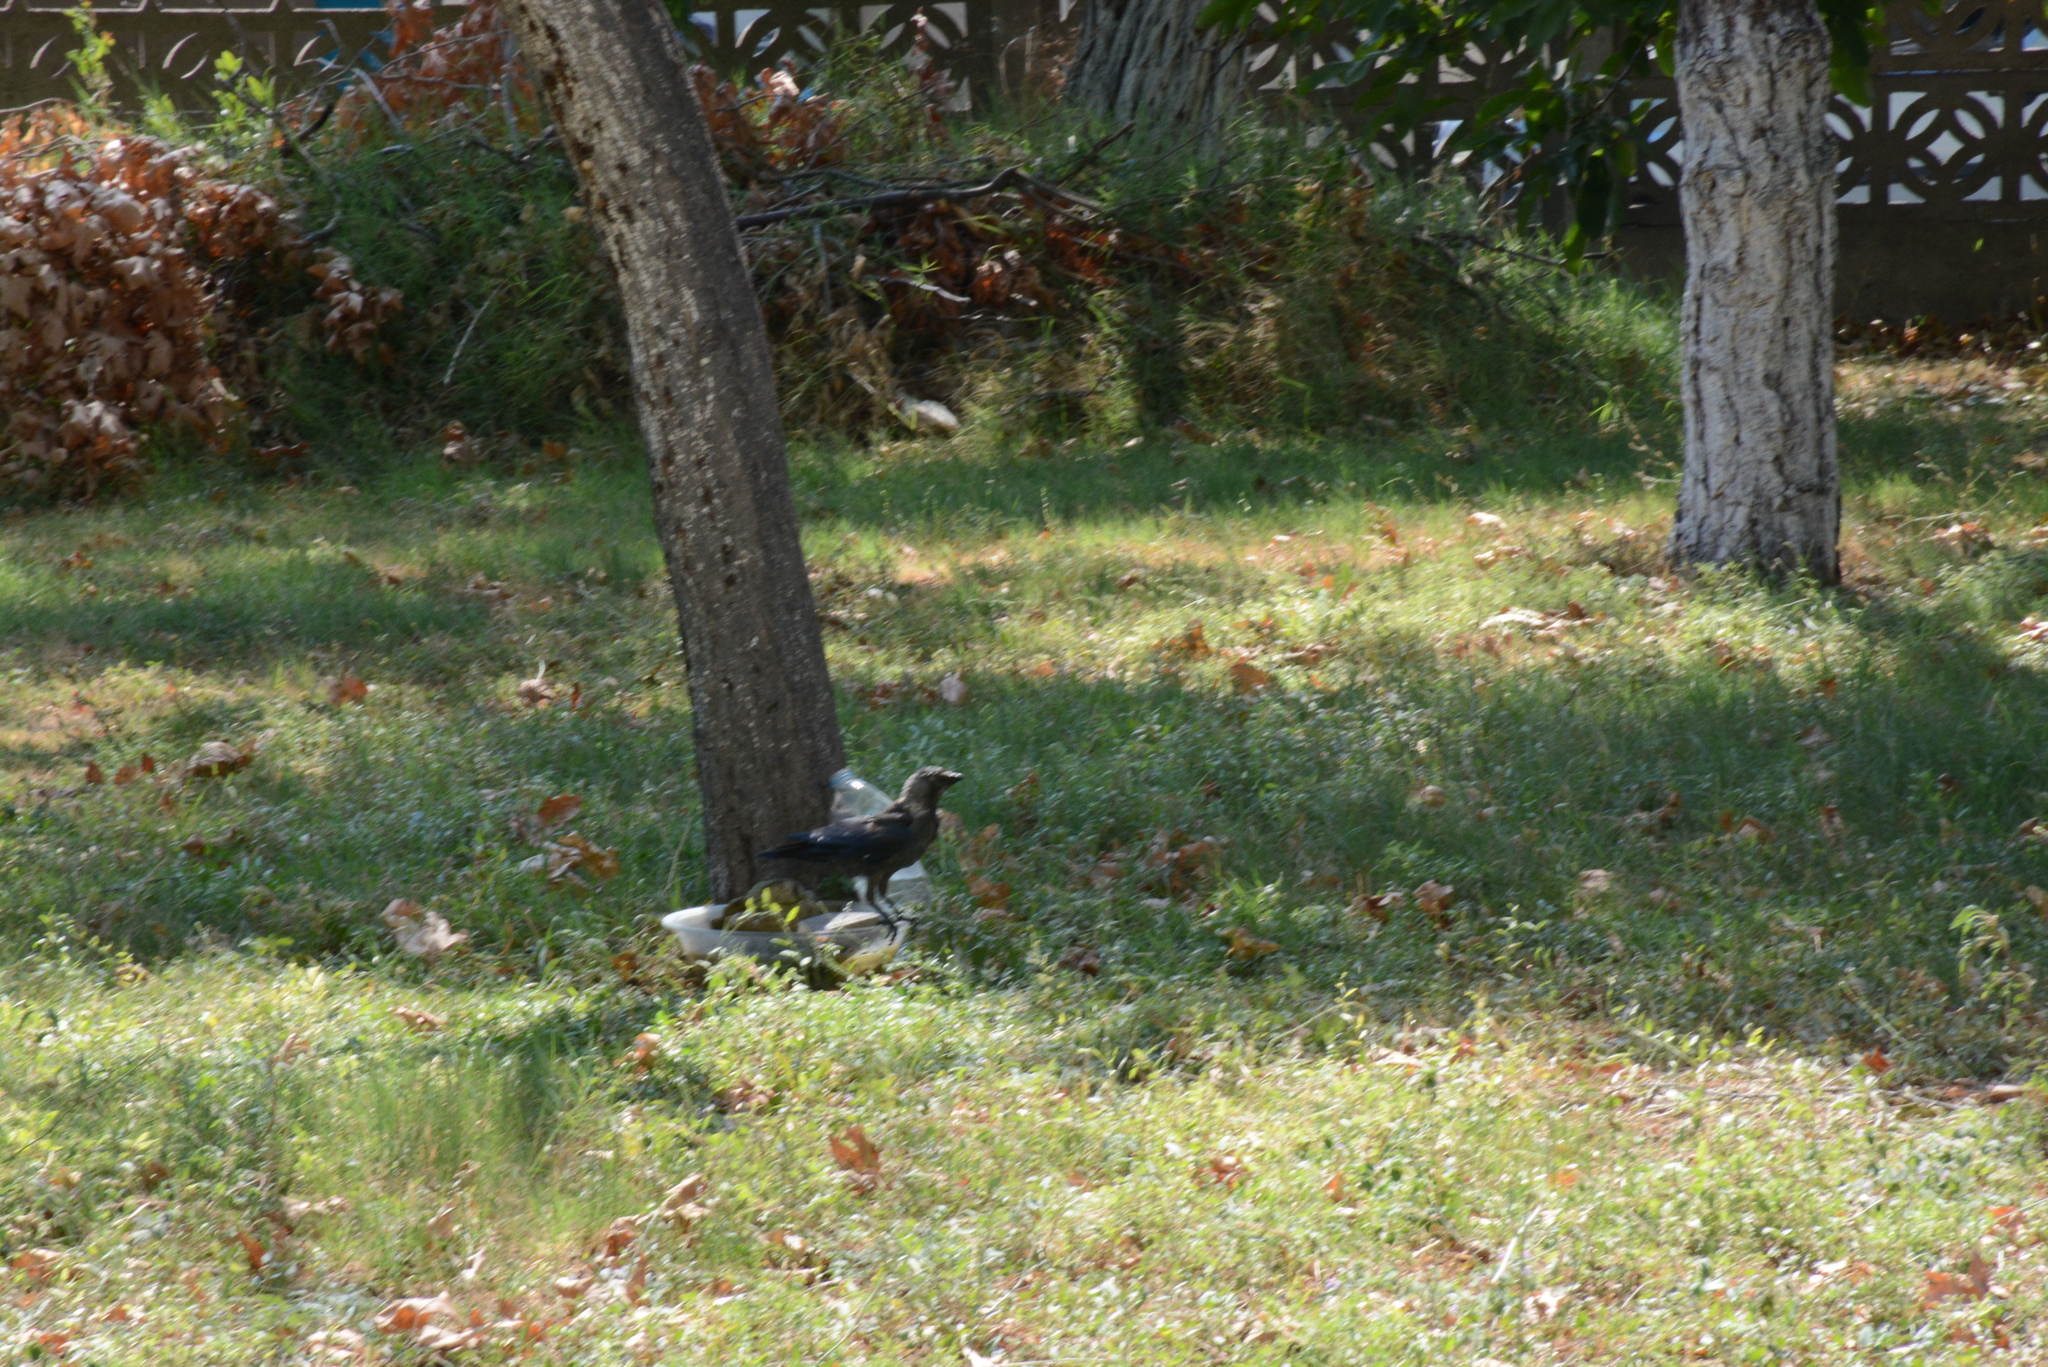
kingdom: Animalia
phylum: Chordata
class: Aves
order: Passeriformes
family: Corvidae
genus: Coloeus
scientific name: Coloeus monedula
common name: Western jackdaw
